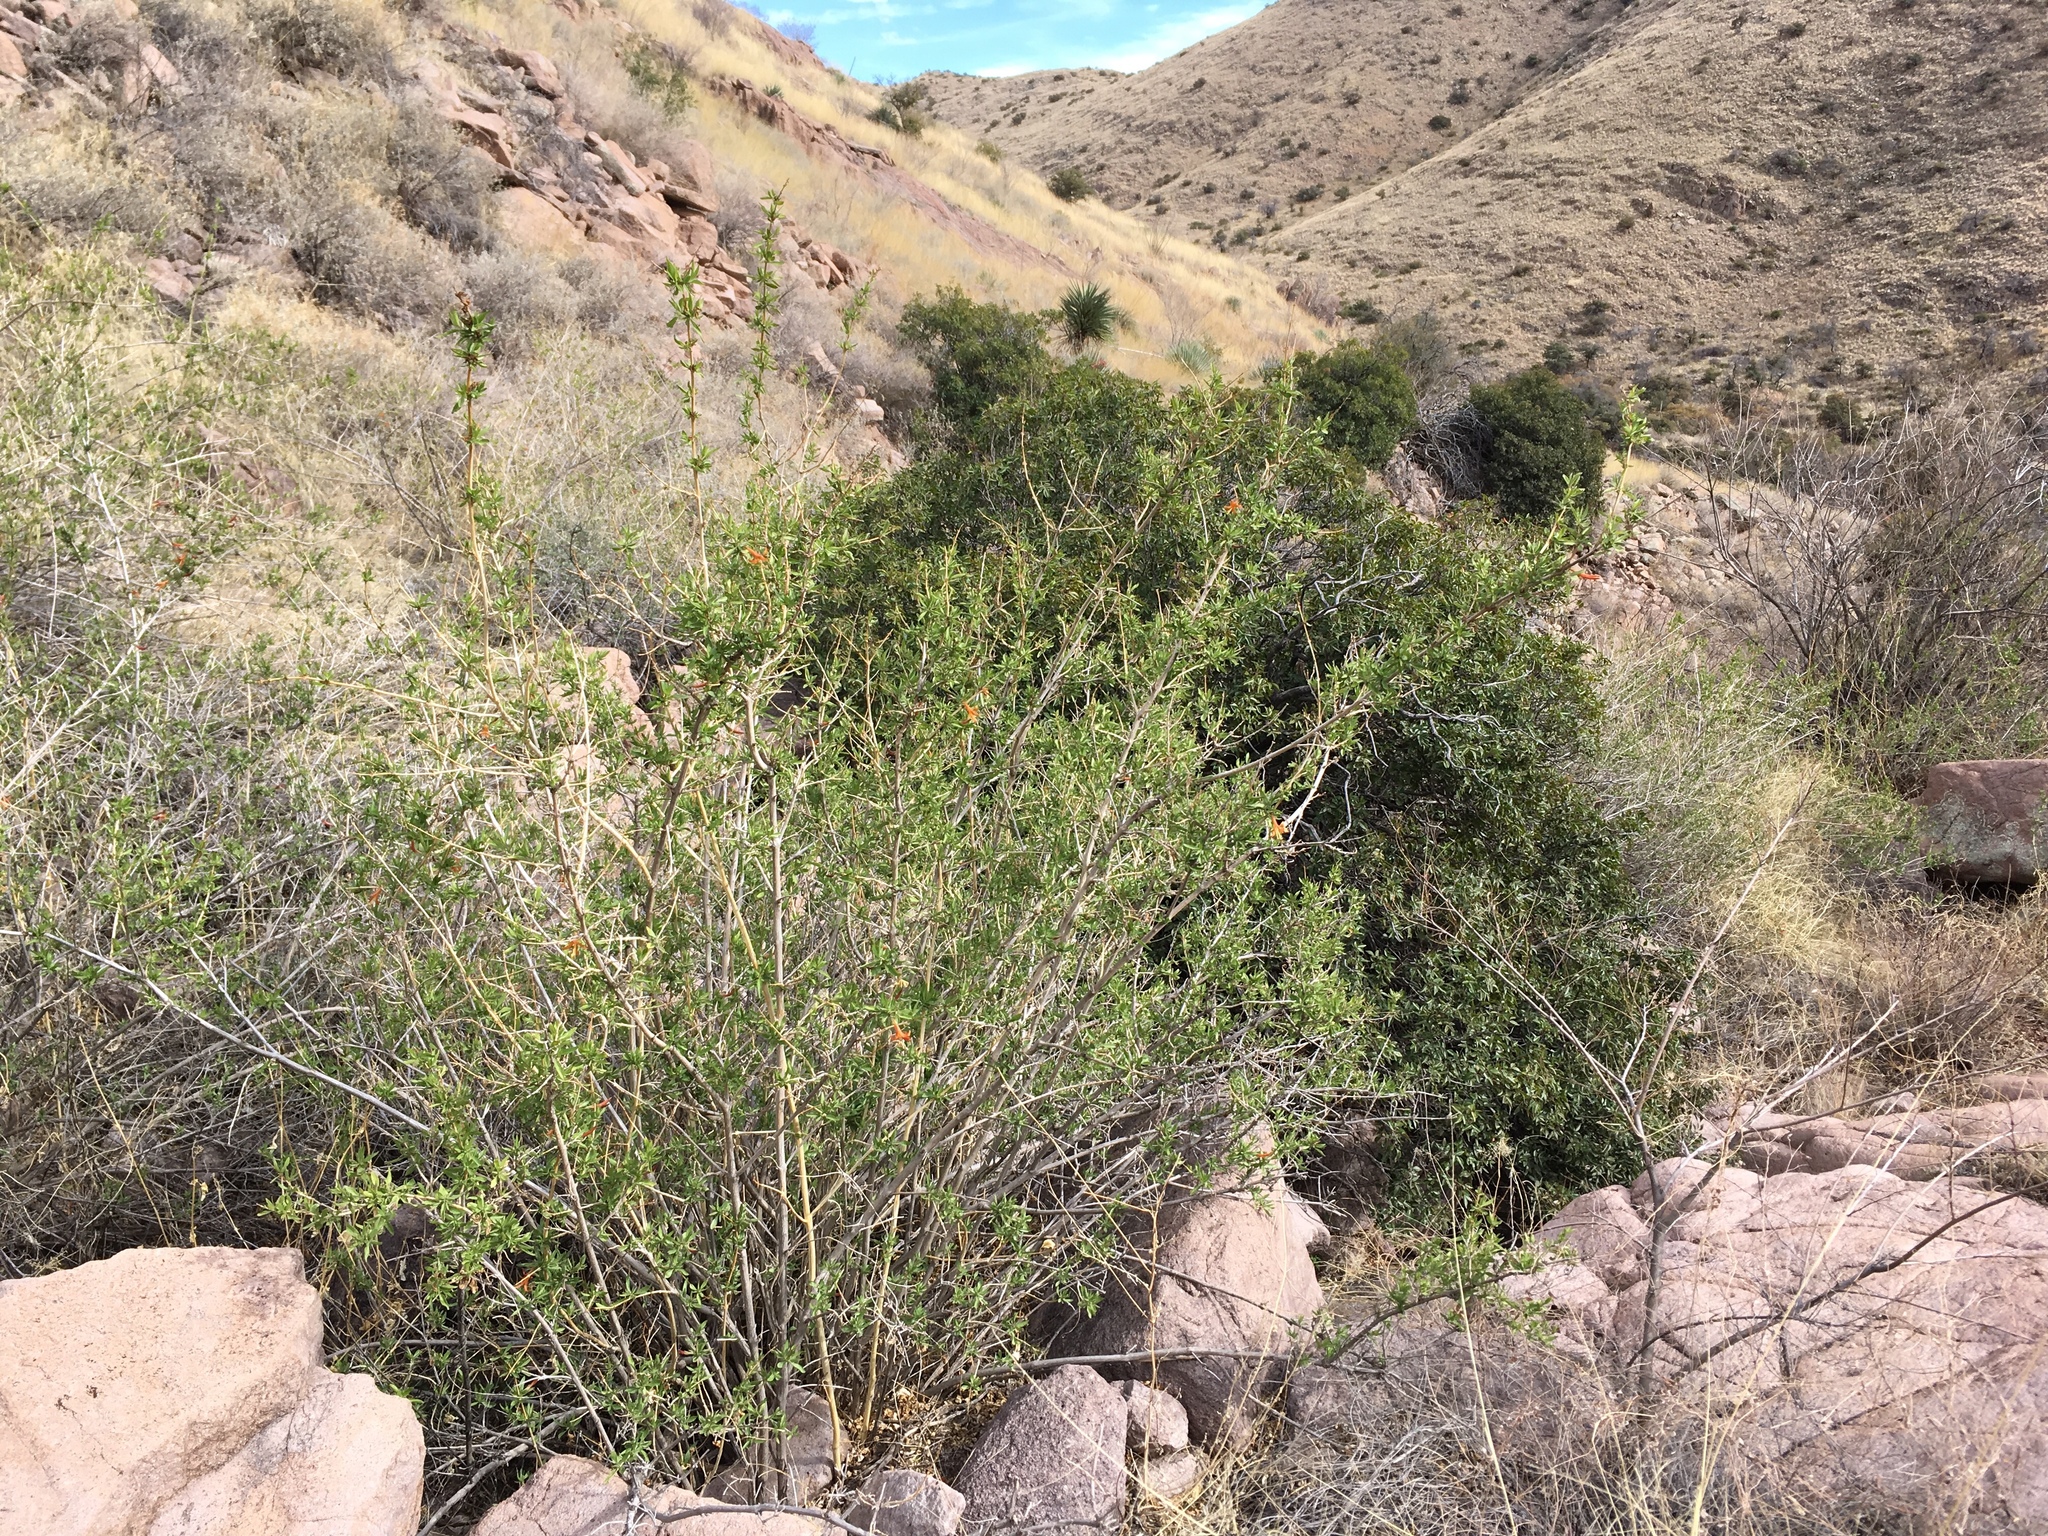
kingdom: Plantae
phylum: Tracheophyta
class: Magnoliopsida
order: Lamiales
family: Acanthaceae
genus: Anisacanthus
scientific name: Anisacanthus thurberi
